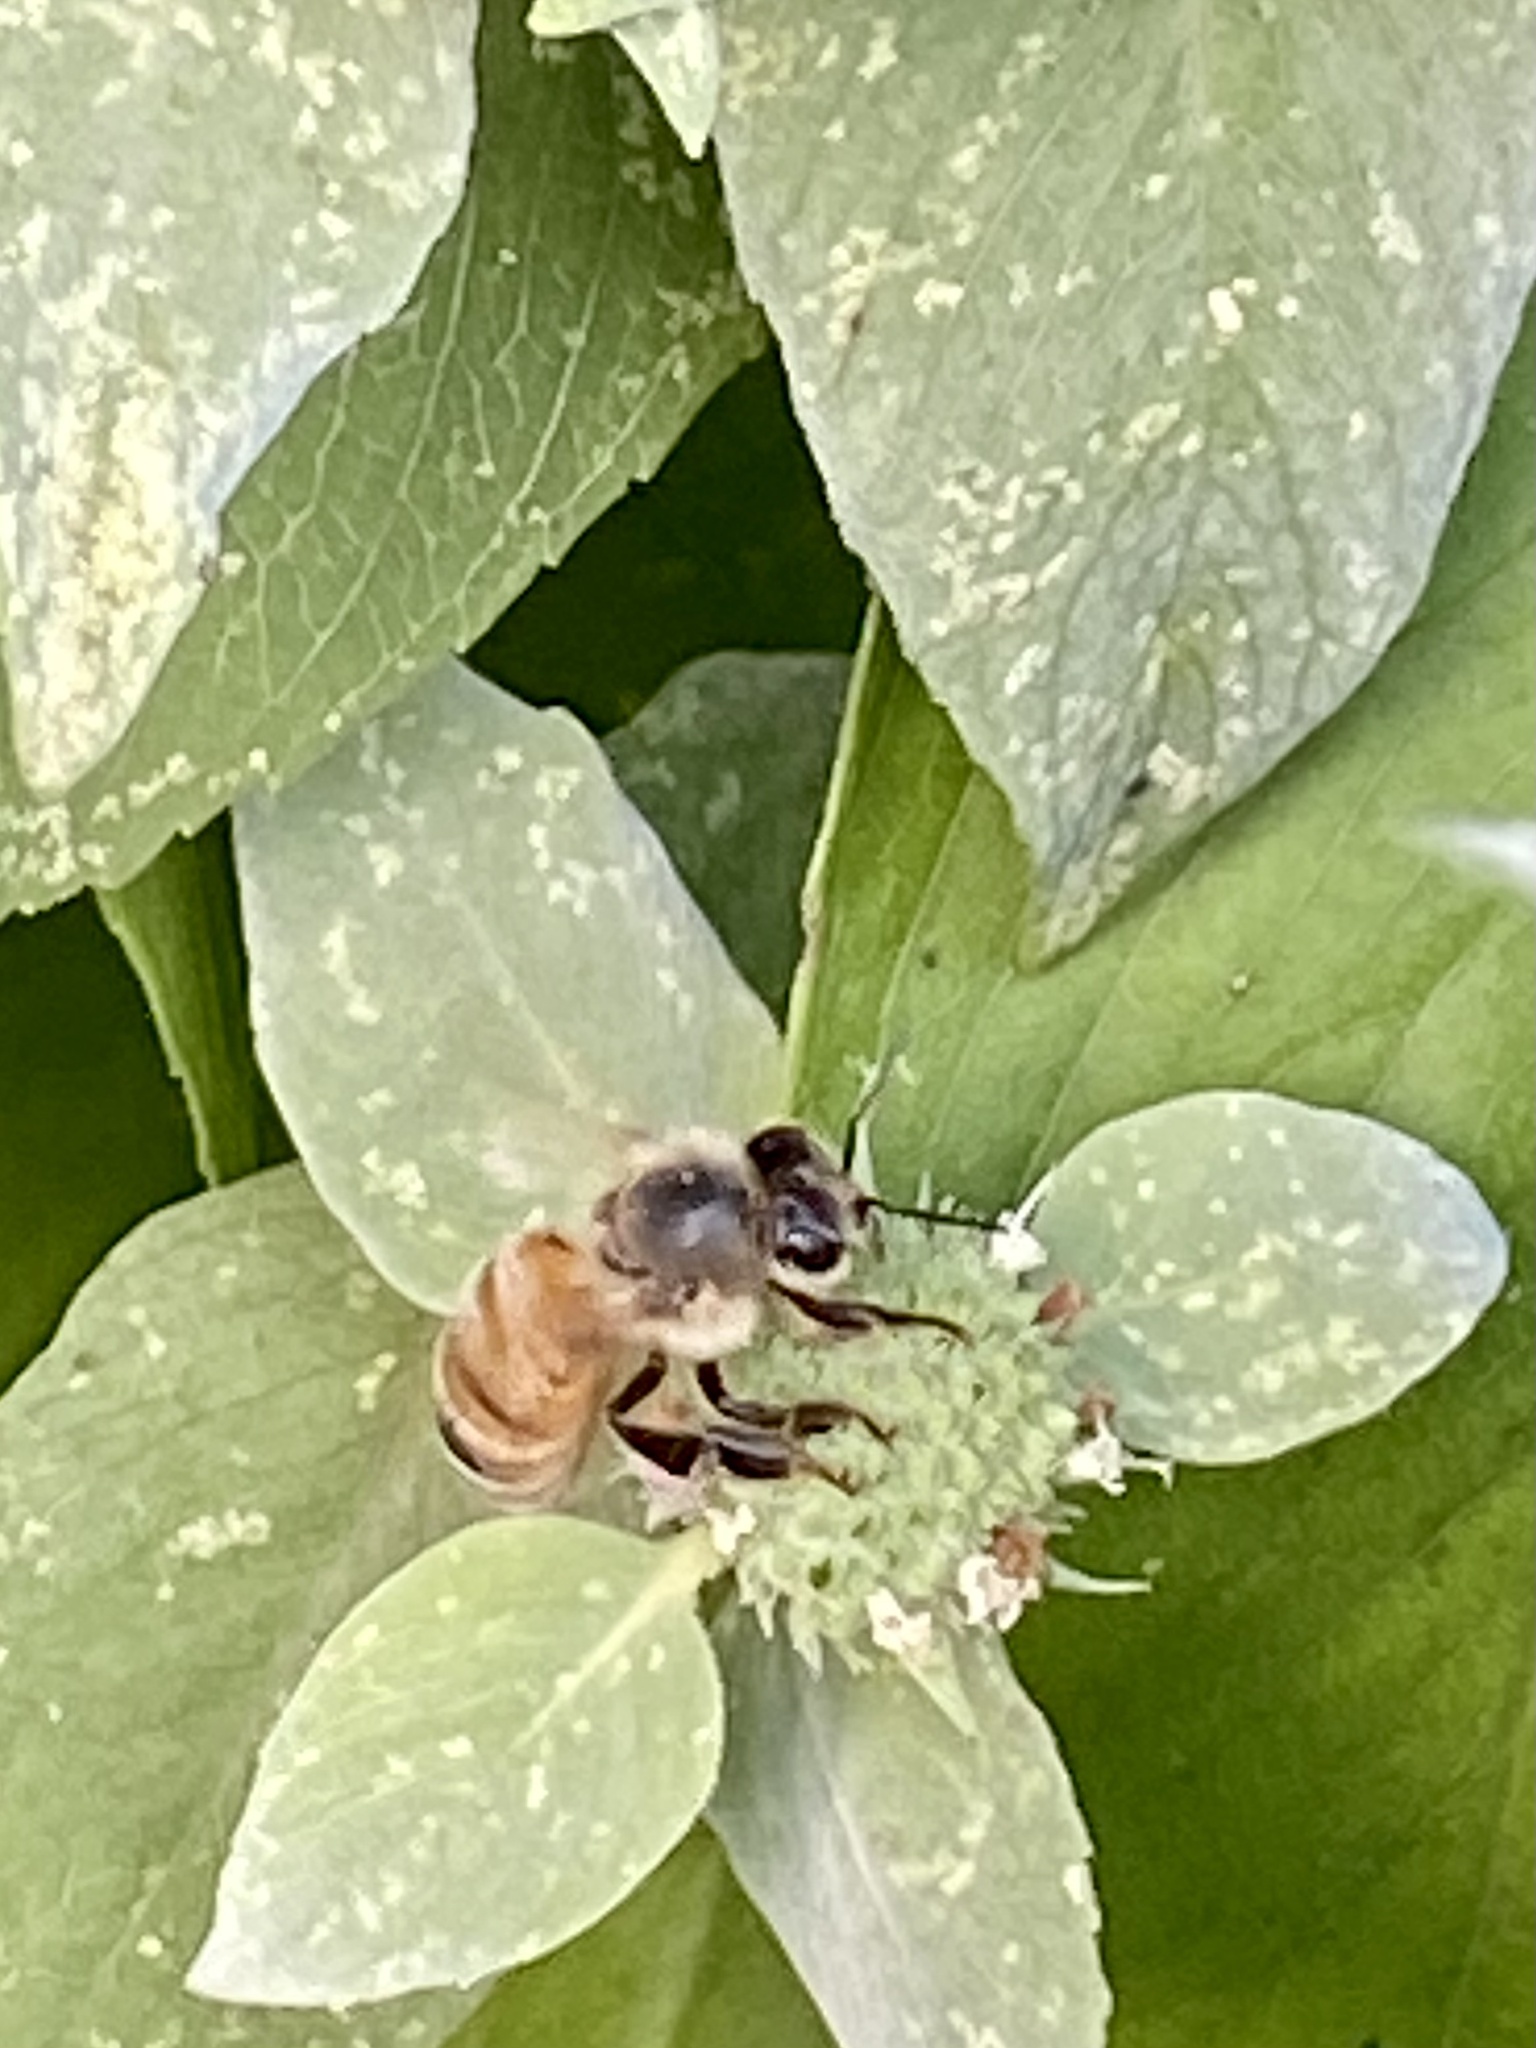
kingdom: Animalia
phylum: Arthropoda
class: Insecta
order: Hymenoptera
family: Apidae
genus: Apis
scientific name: Apis mellifera
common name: Honey bee
